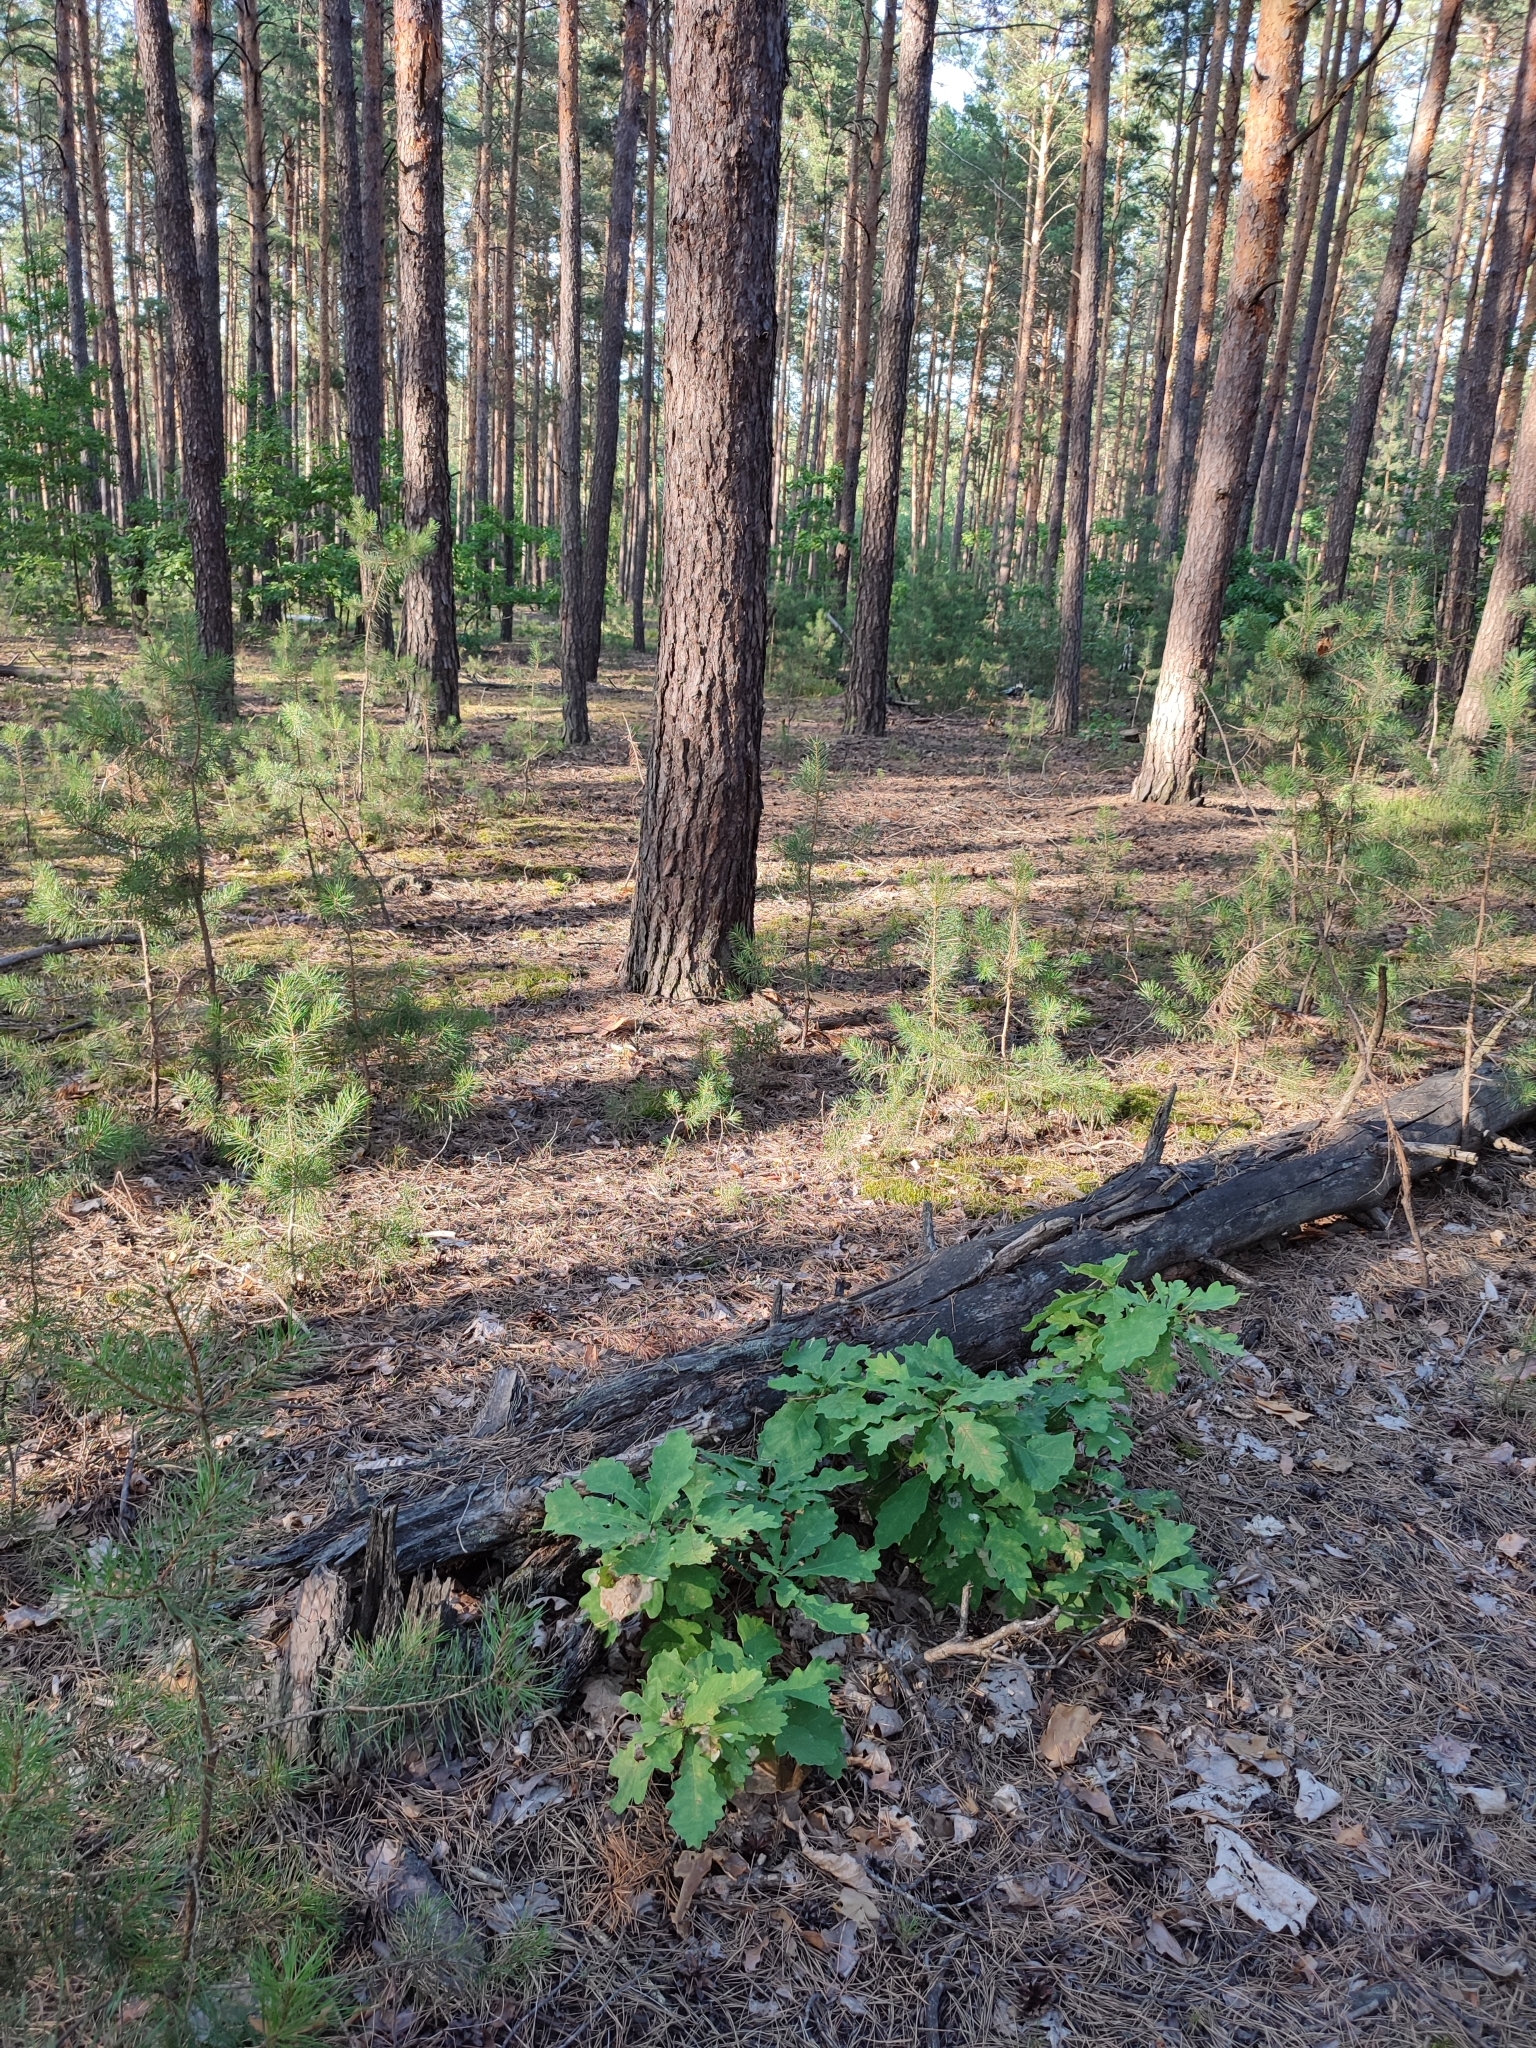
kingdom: Plantae
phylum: Tracheophyta
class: Magnoliopsida
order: Fagales
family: Fagaceae
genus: Quercus
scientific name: Quercus robur
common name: Pedunculate oak
